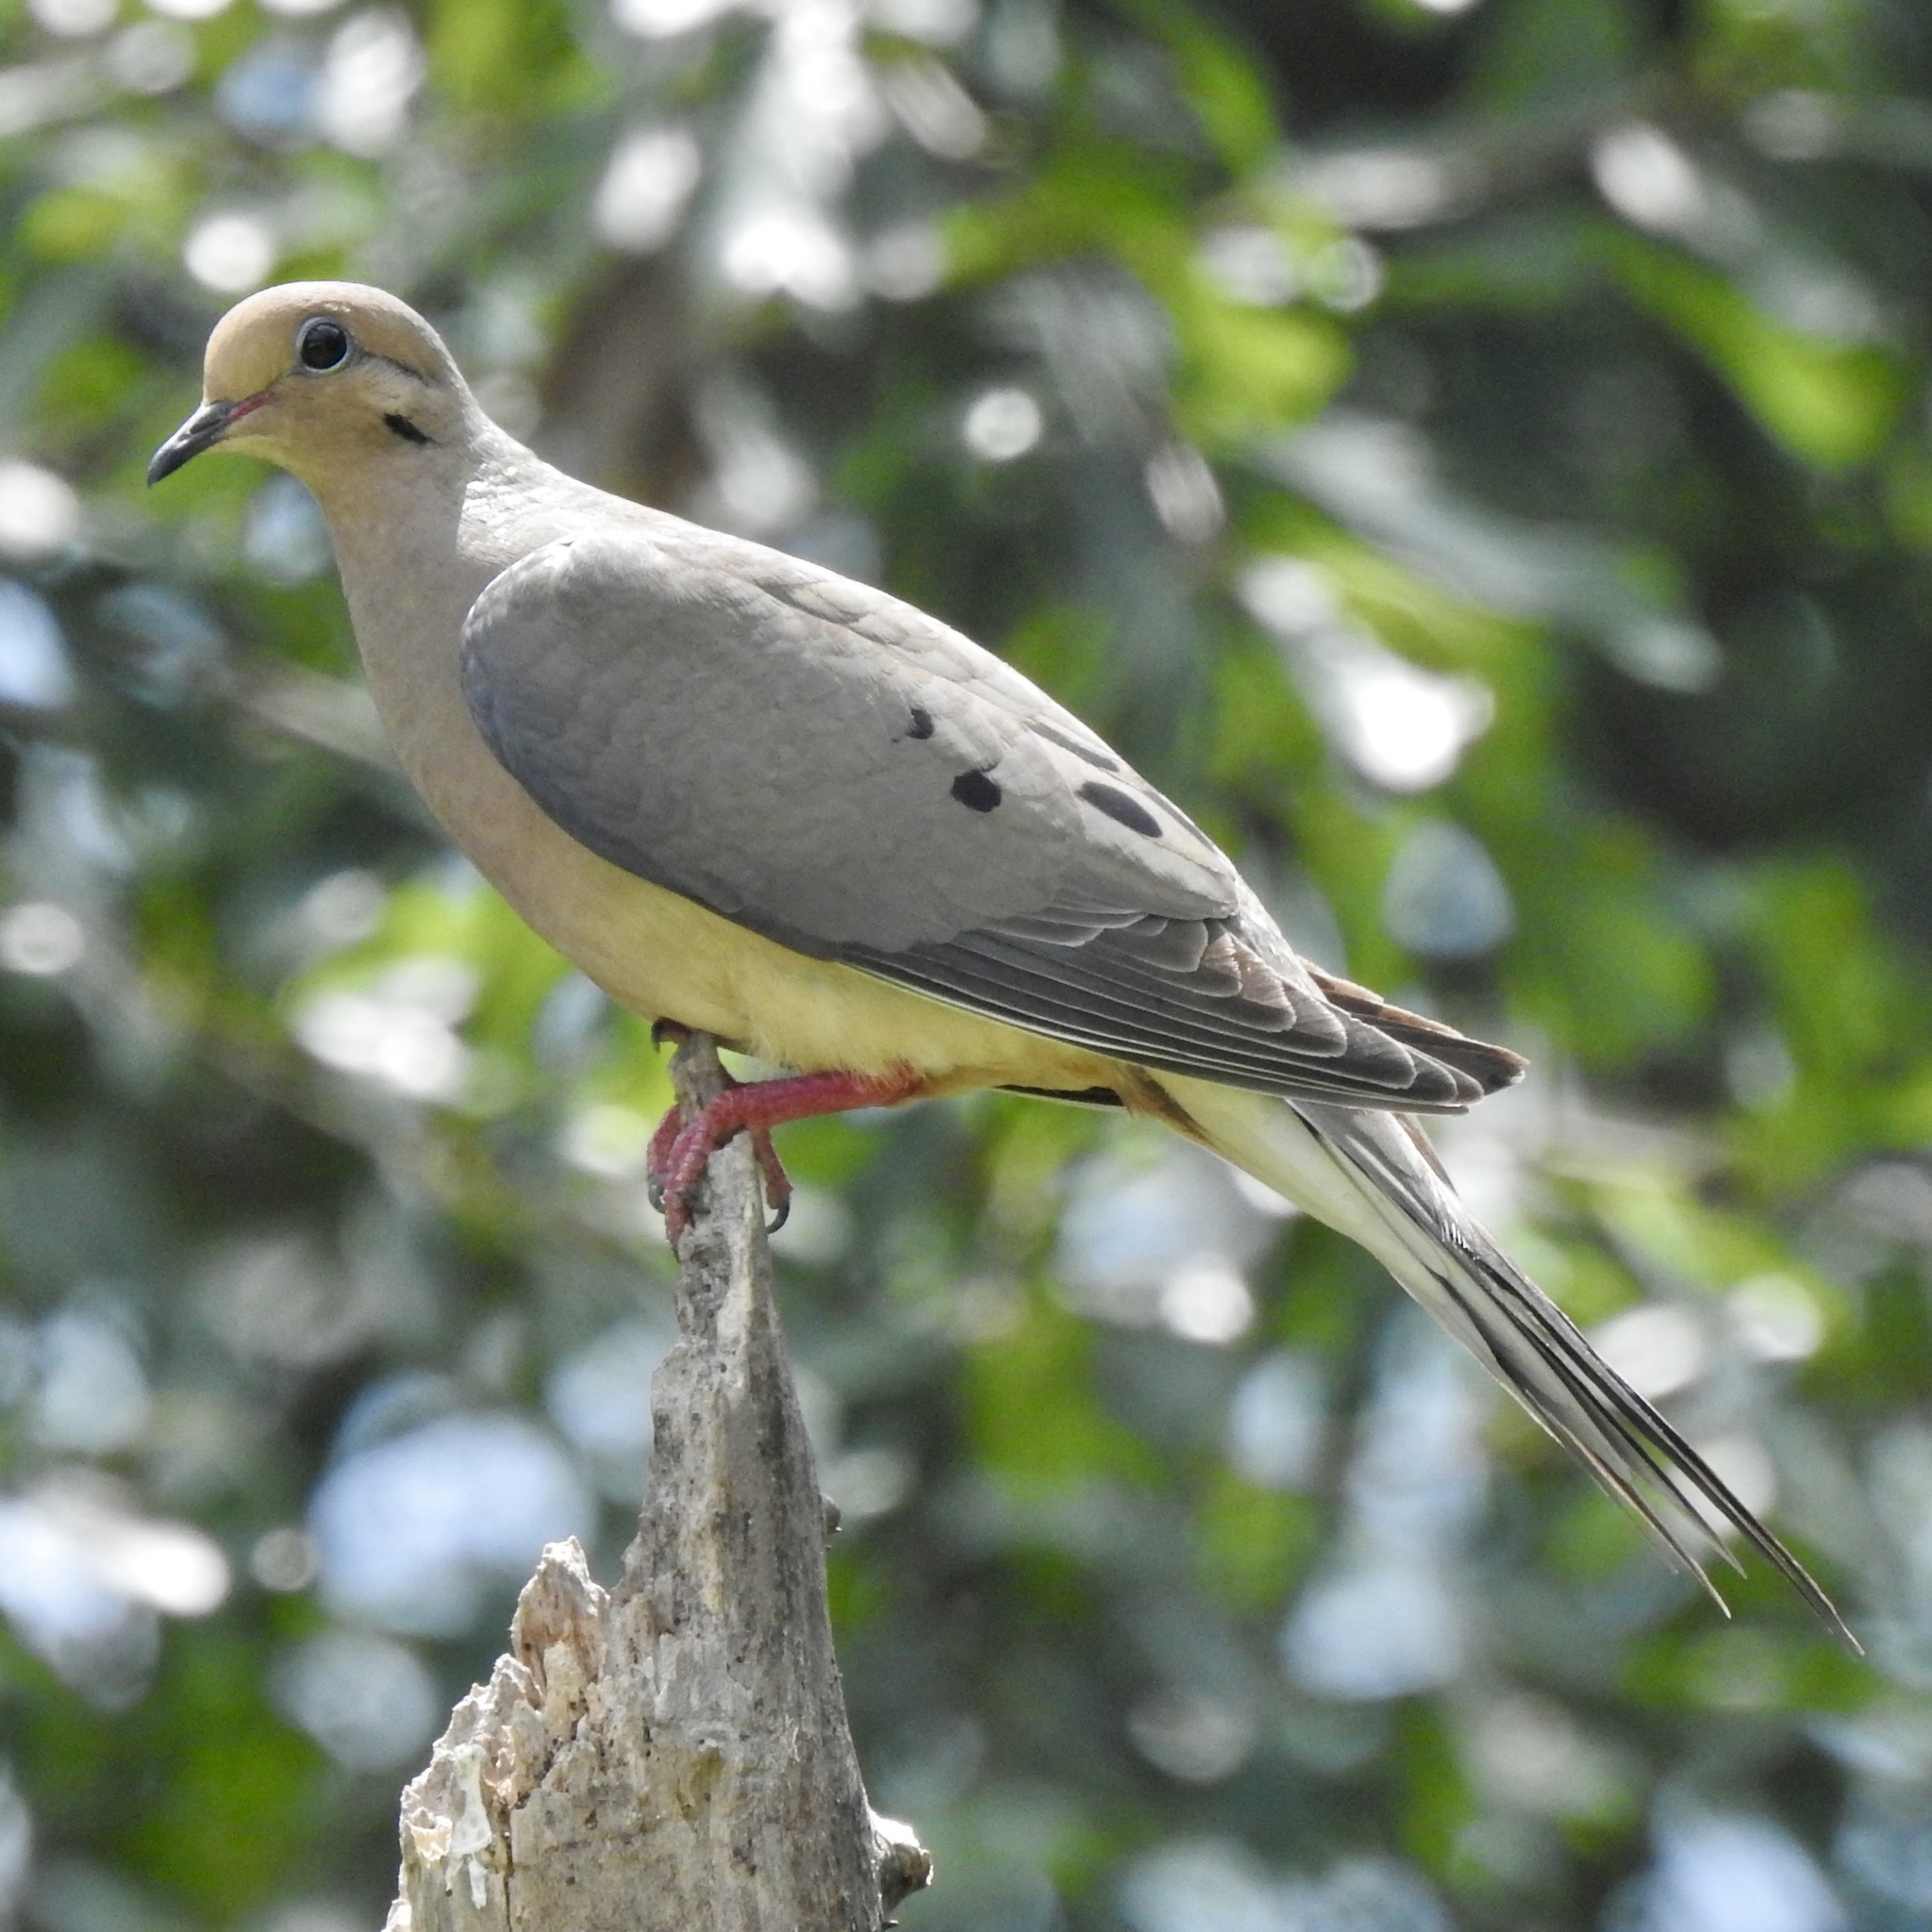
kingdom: Animalia
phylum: Chordata
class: Aves
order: Columbiformes
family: Columbidae
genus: Zenaida
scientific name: Zenaida macroura
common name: Mourning dove
